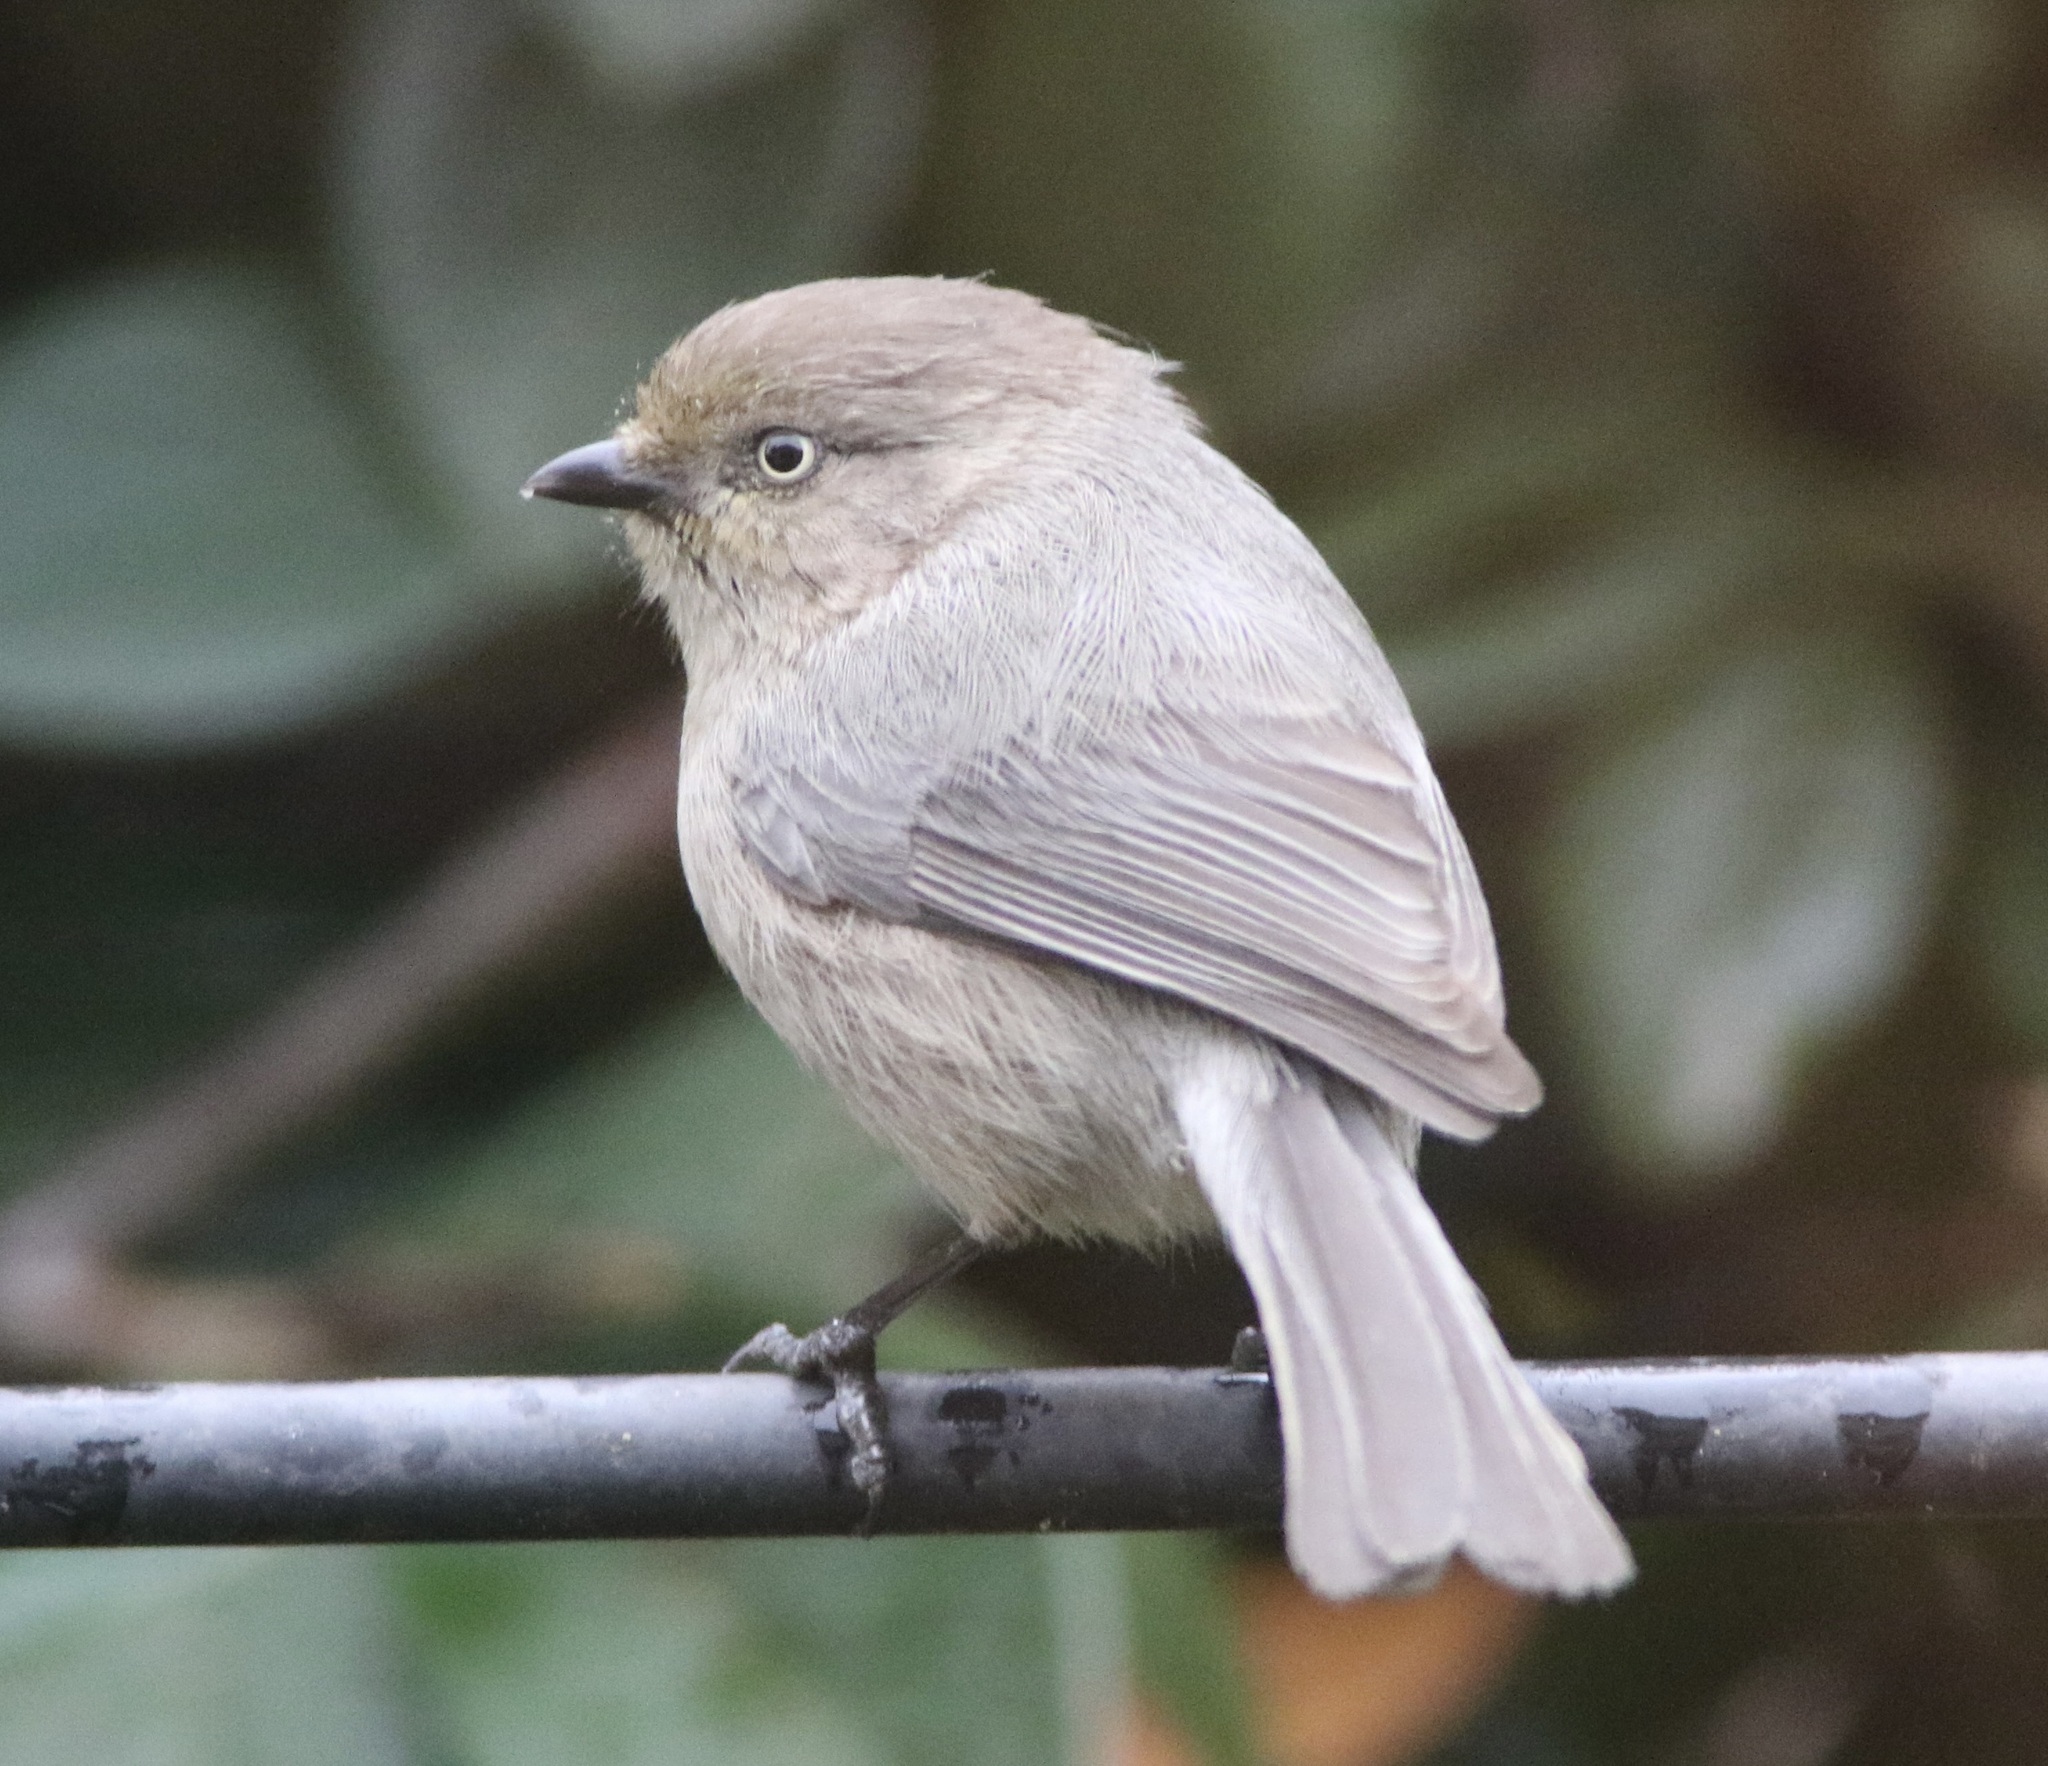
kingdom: Animalia
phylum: Chordata
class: Aves
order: Passeriformes
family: Aegithalidae
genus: Psaltriparus
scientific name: Psaltriparus minimus
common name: American bushtit
